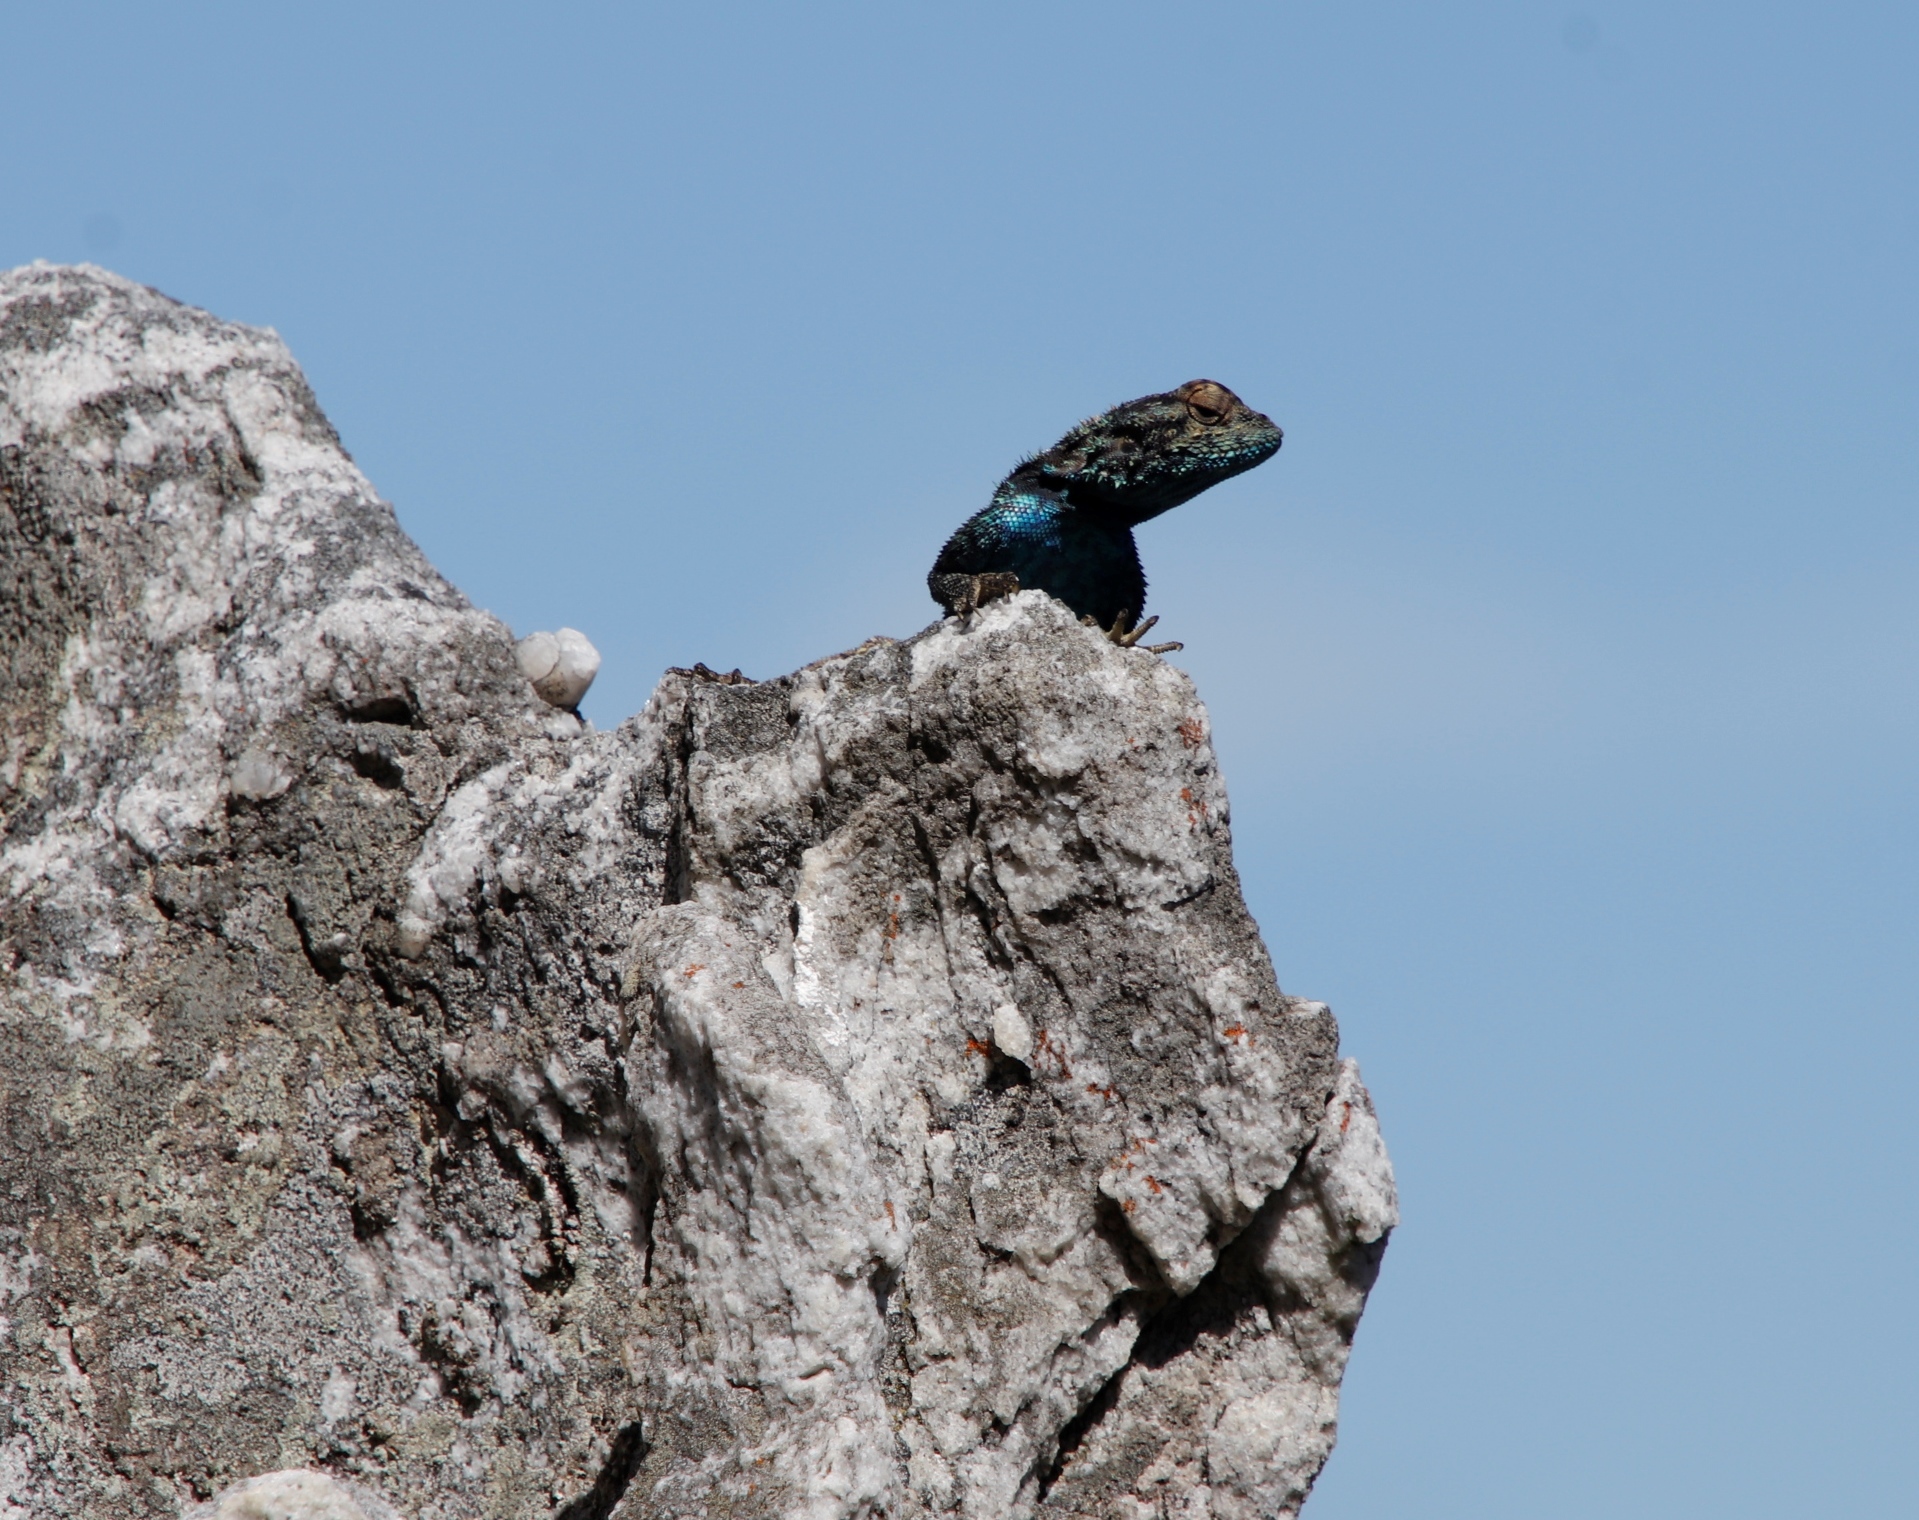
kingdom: Animalia
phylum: Chordata
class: Squamata
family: Agamidae
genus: Agama
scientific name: Agama atra
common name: Southern african rock agama
